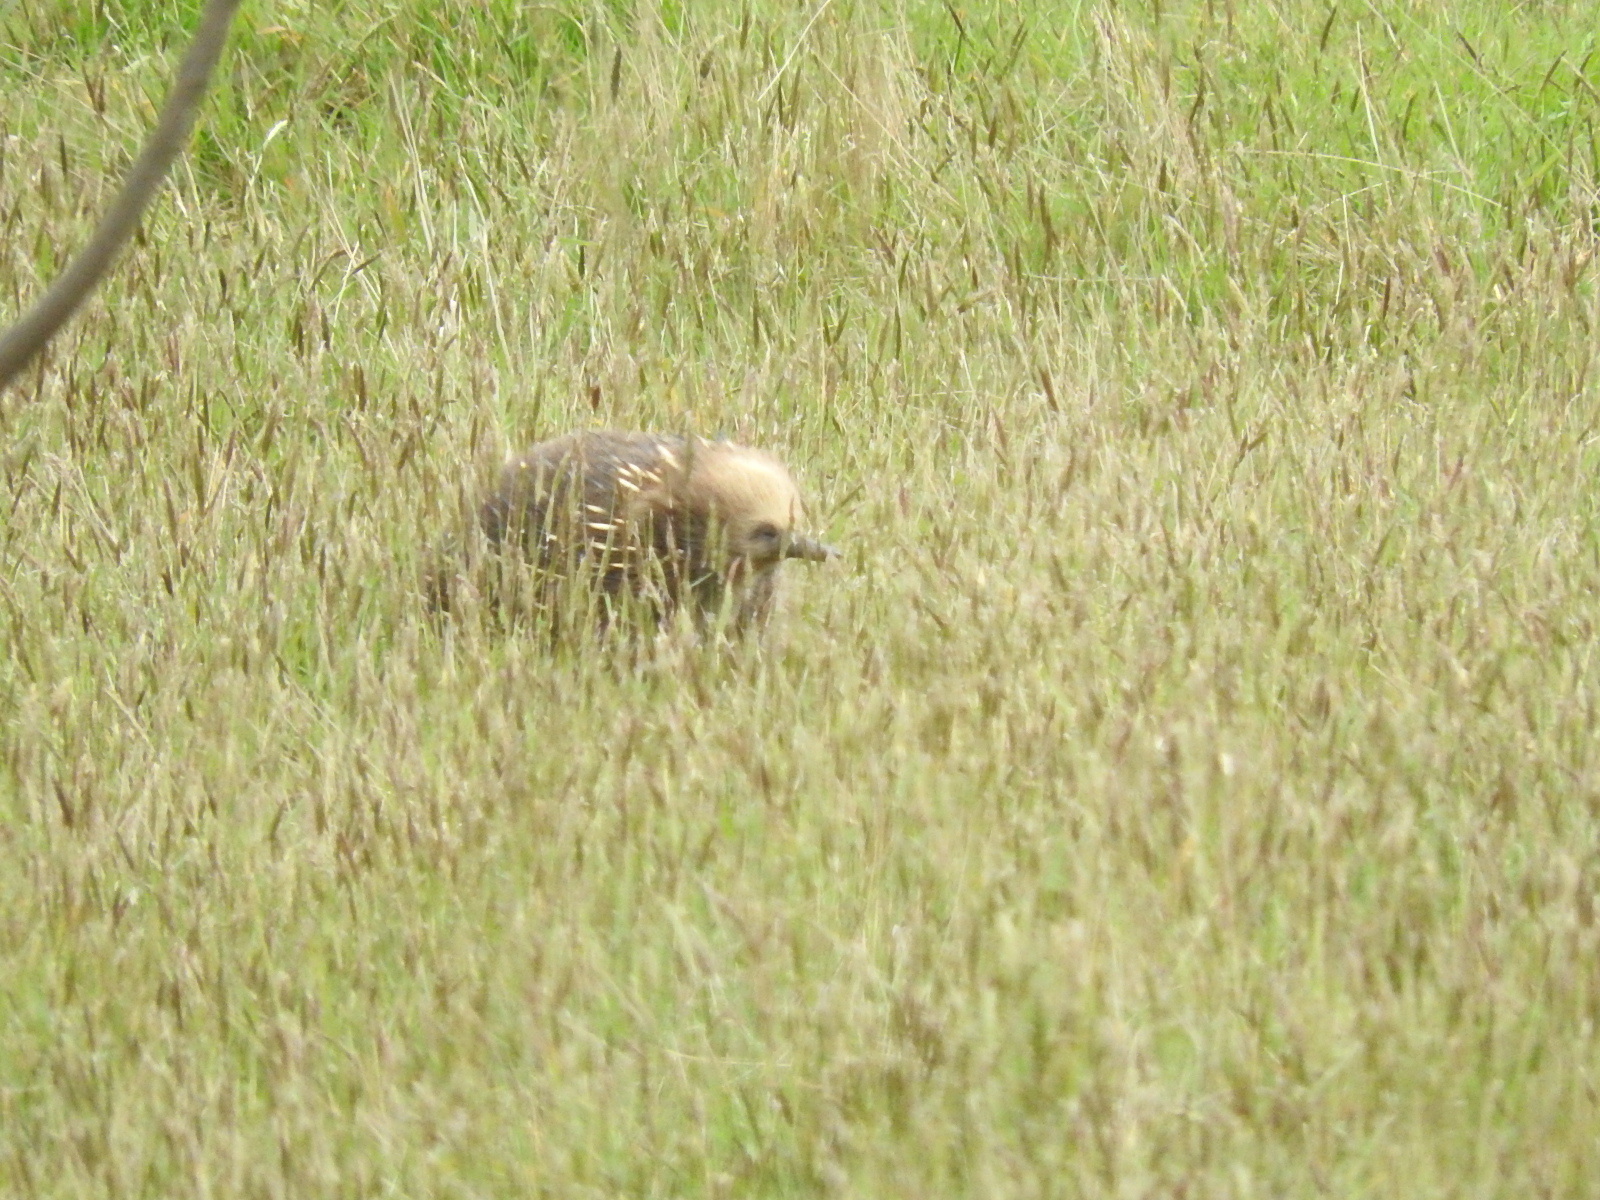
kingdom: Animalia
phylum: Chordata
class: Mammalia
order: Monotremata
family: Tachyglossidae
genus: Tachyglossus
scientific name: Tachyglossus aculeatus
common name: Short-beaked echidna
